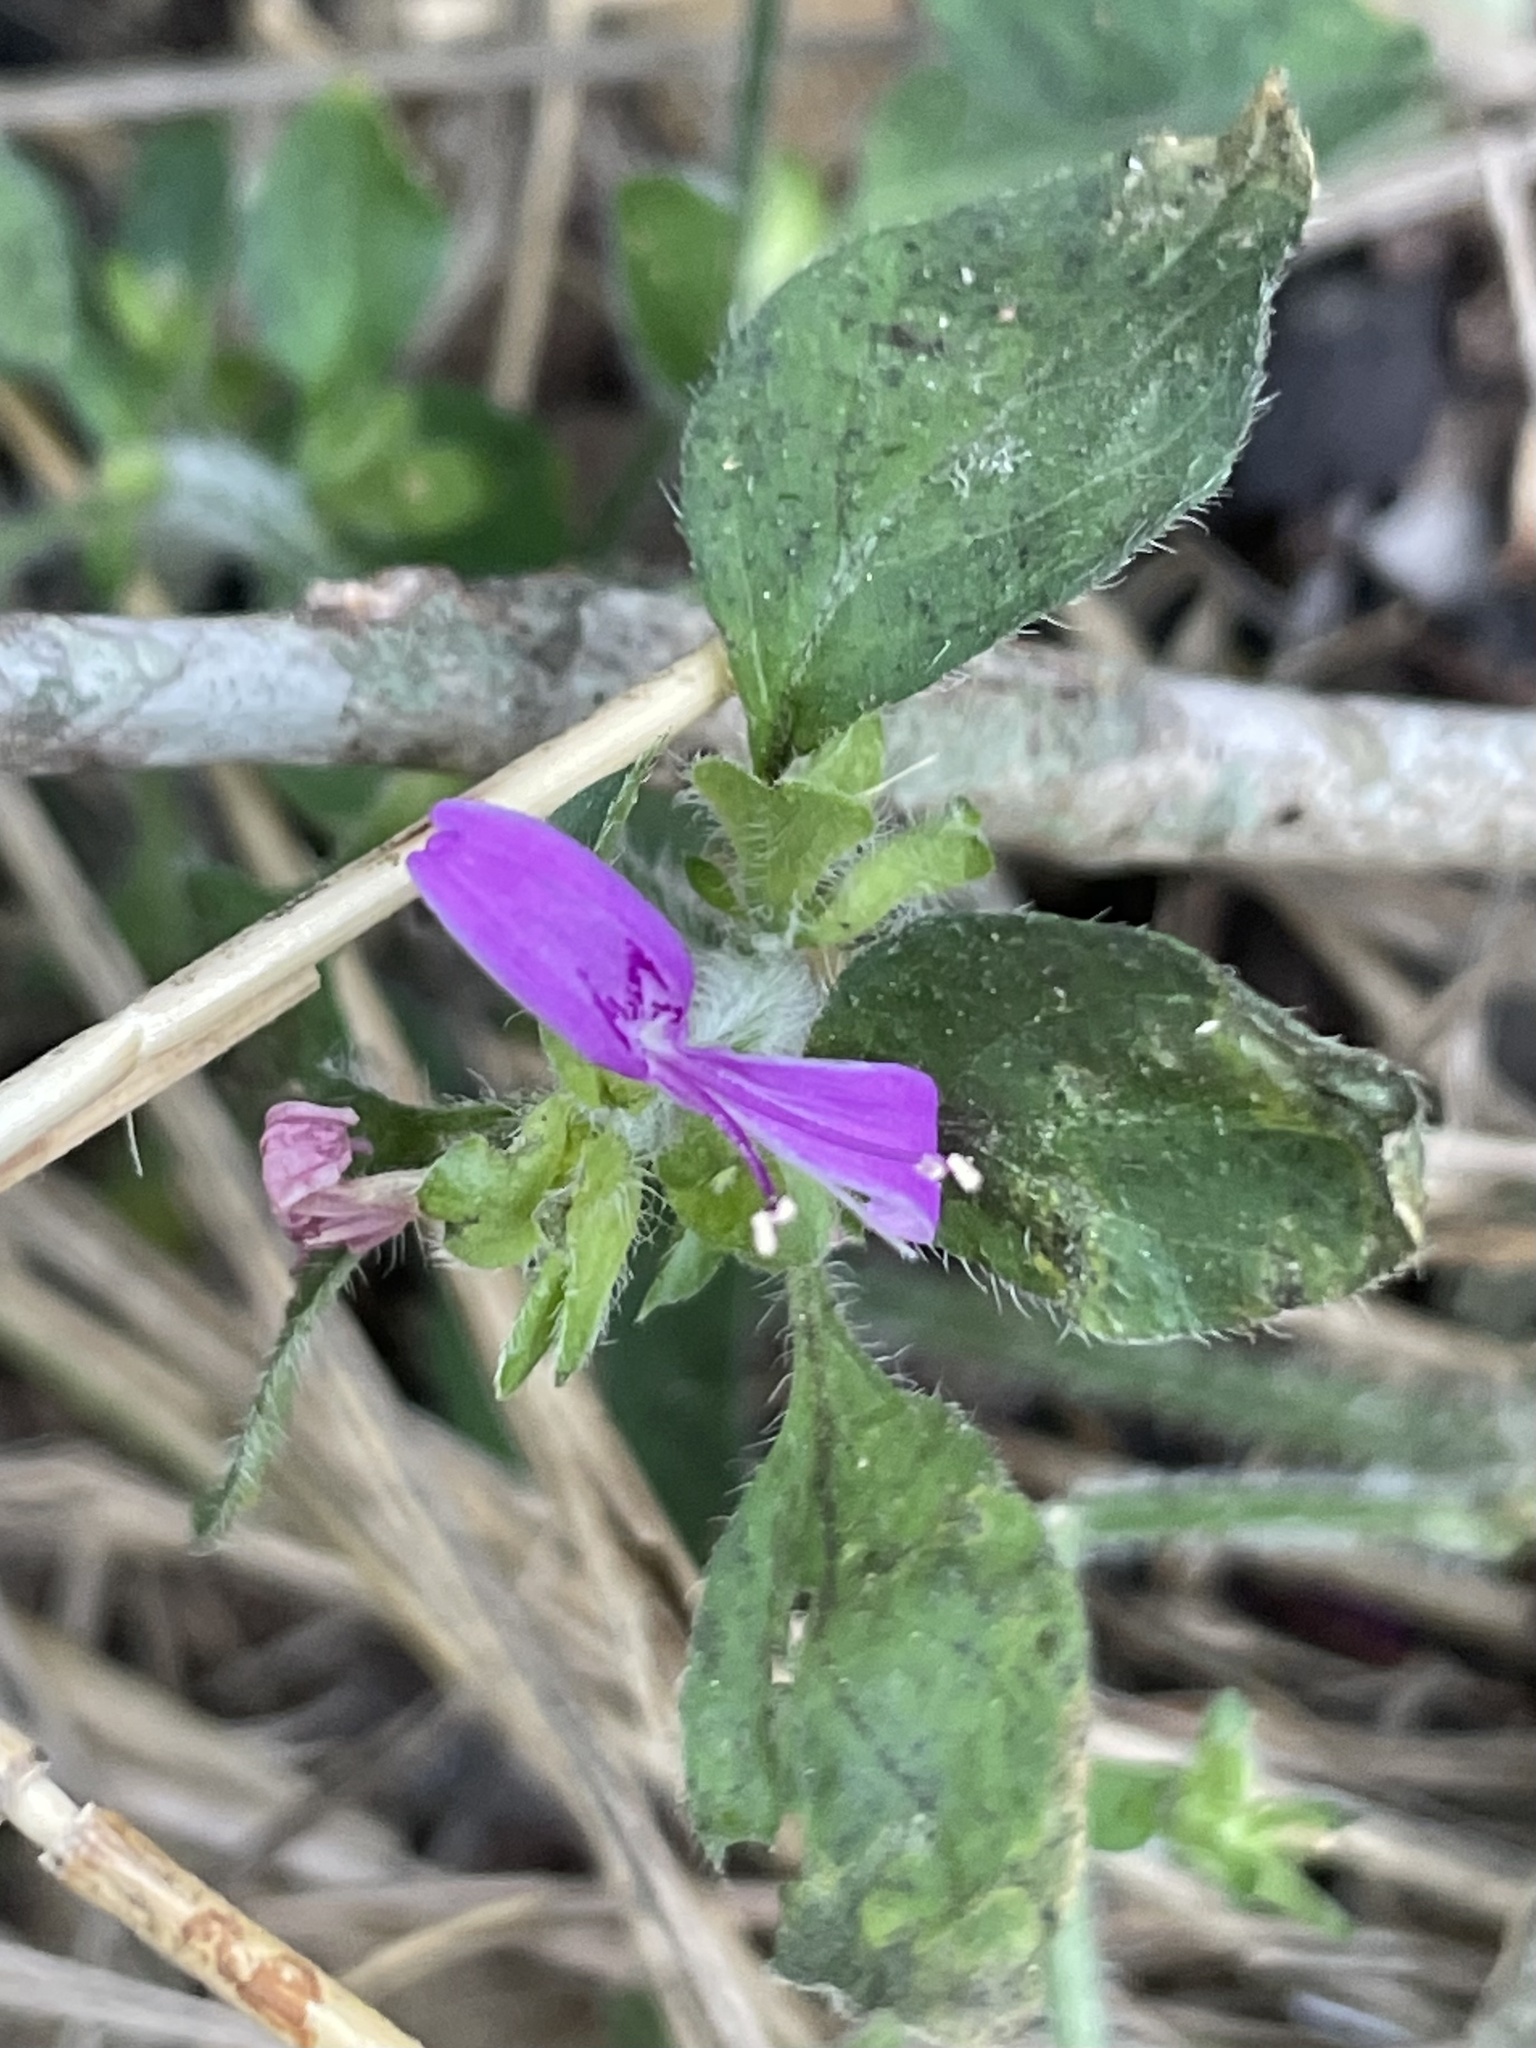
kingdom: Plantae
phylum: Tracheophyta
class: Magnoliopsida
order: Lamiales
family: Acanthaceae
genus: Dicliptera
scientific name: Dicliptera brachiata
